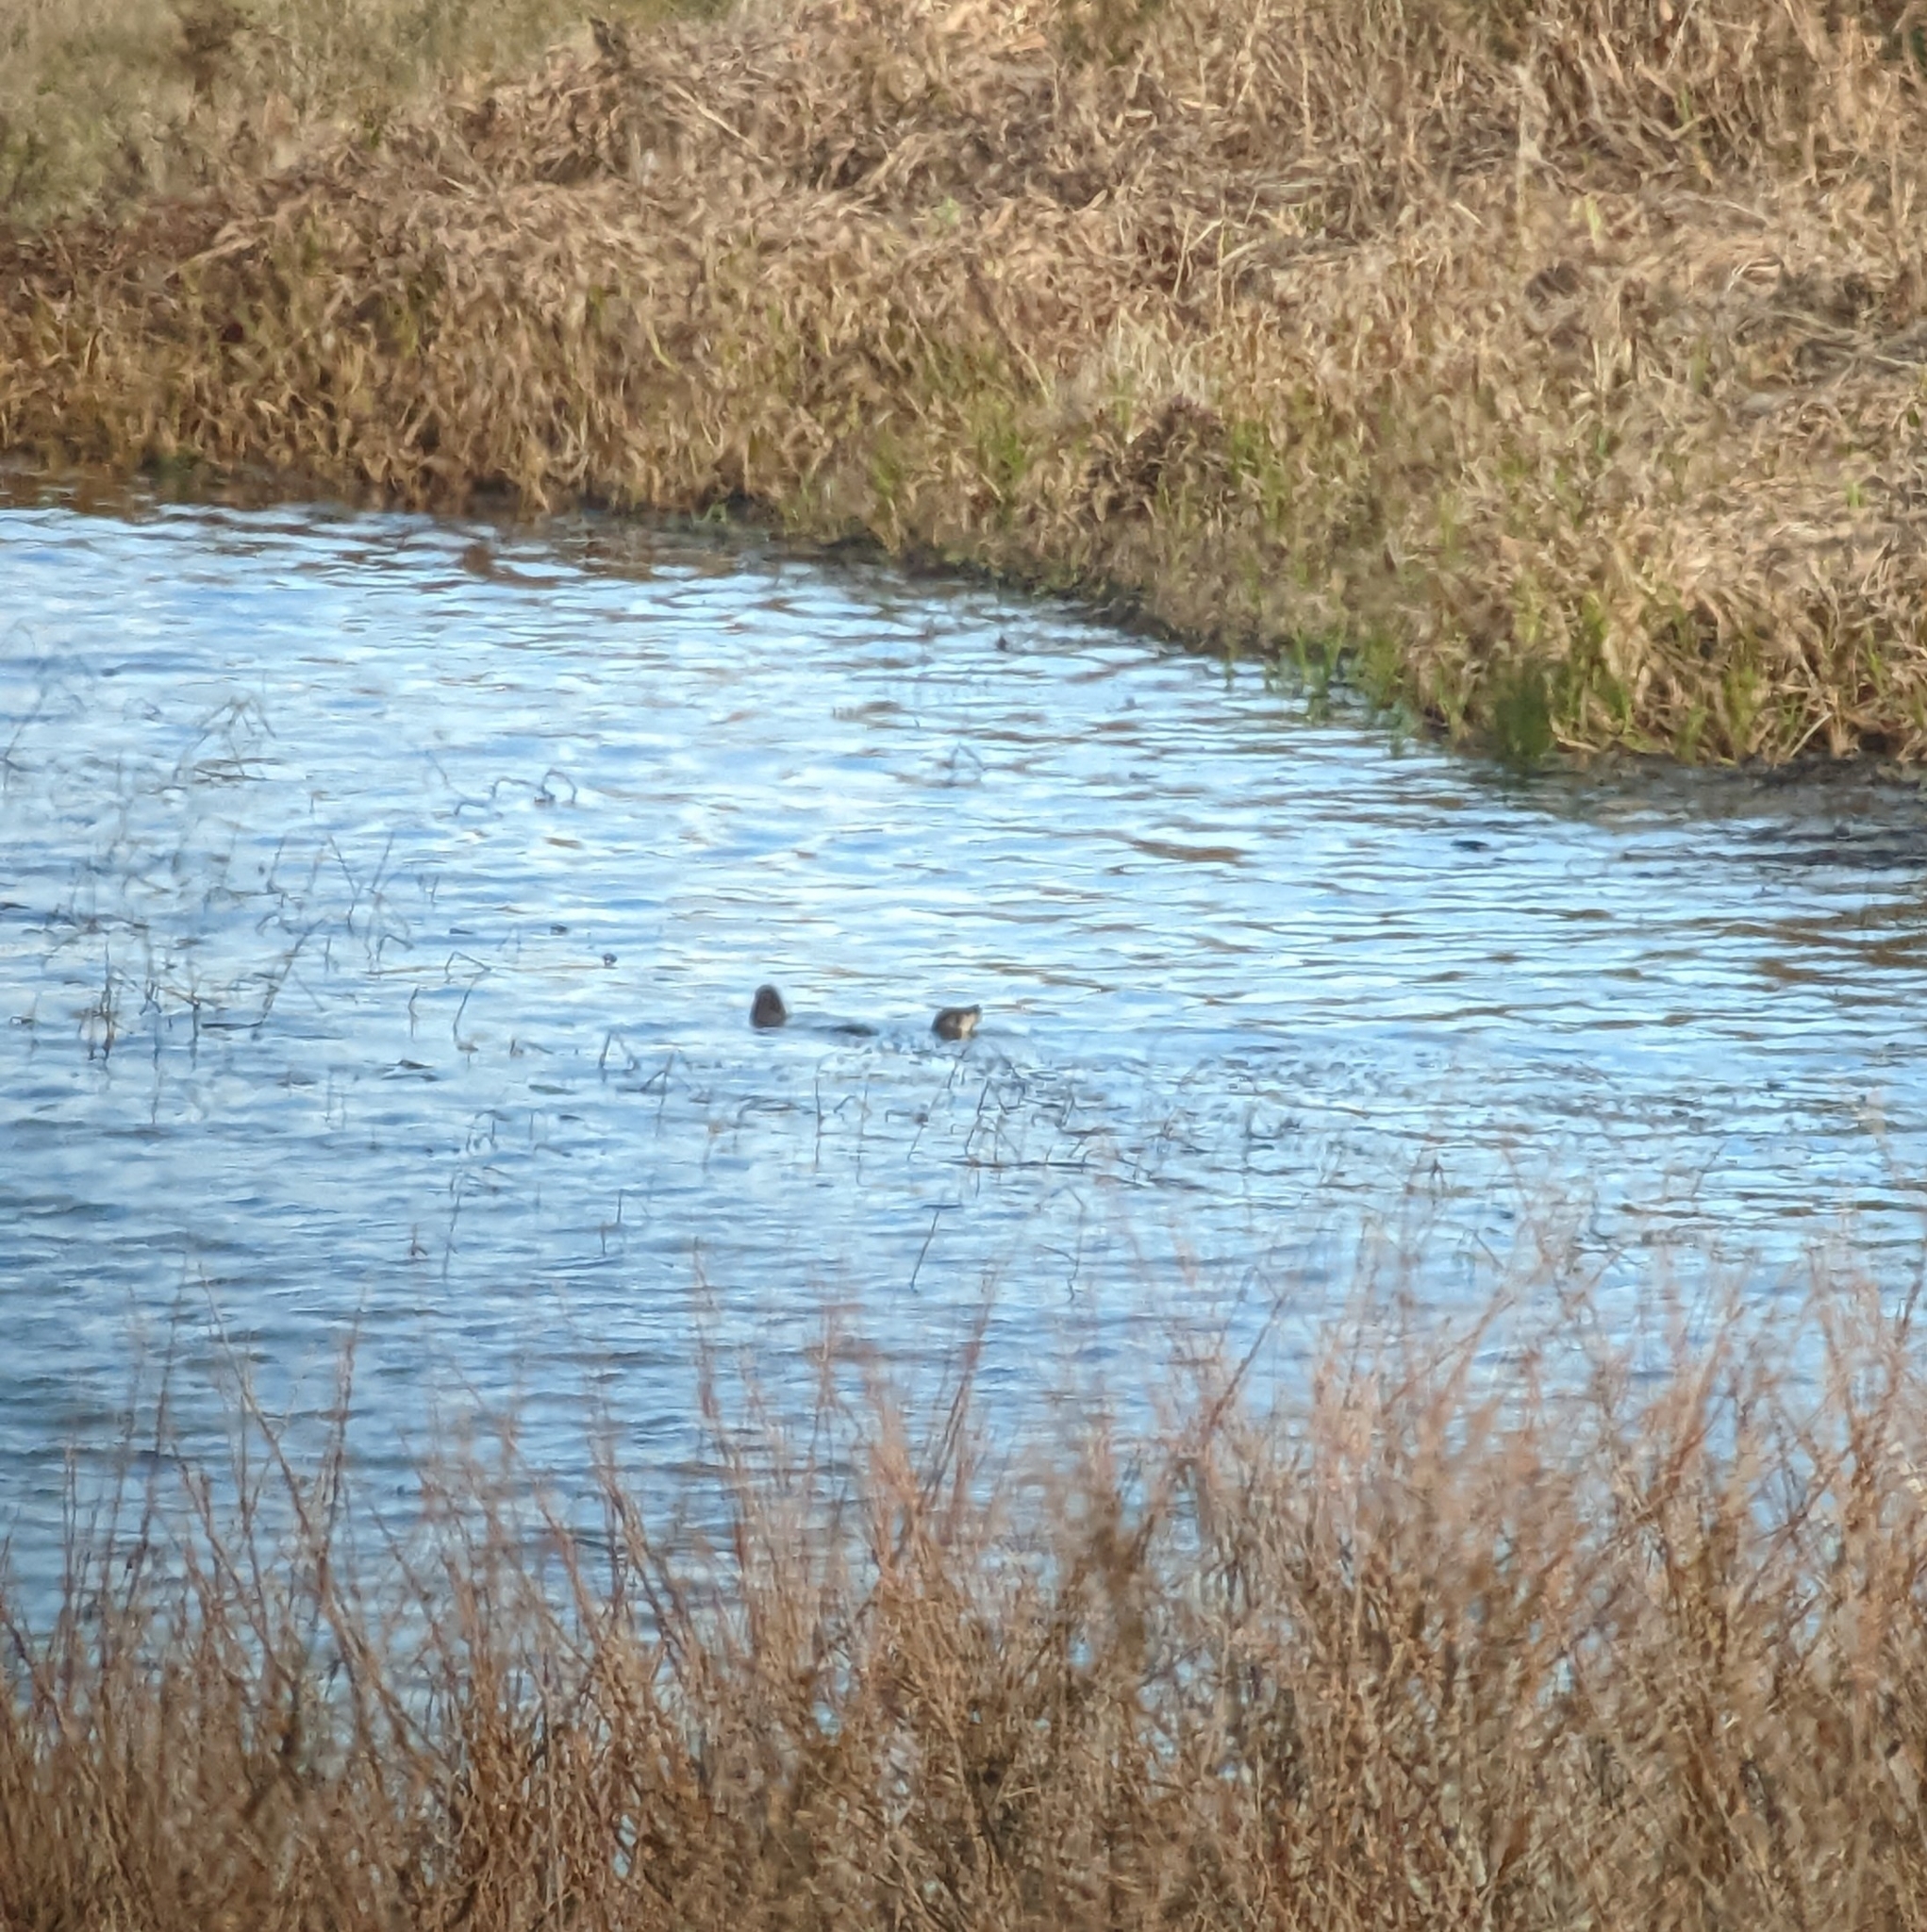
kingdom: Animalia
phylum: Chordata
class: Mammalia
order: Carnivora
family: Mustelidae
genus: Lontra
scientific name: Lontra canadensis
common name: North american river otter
